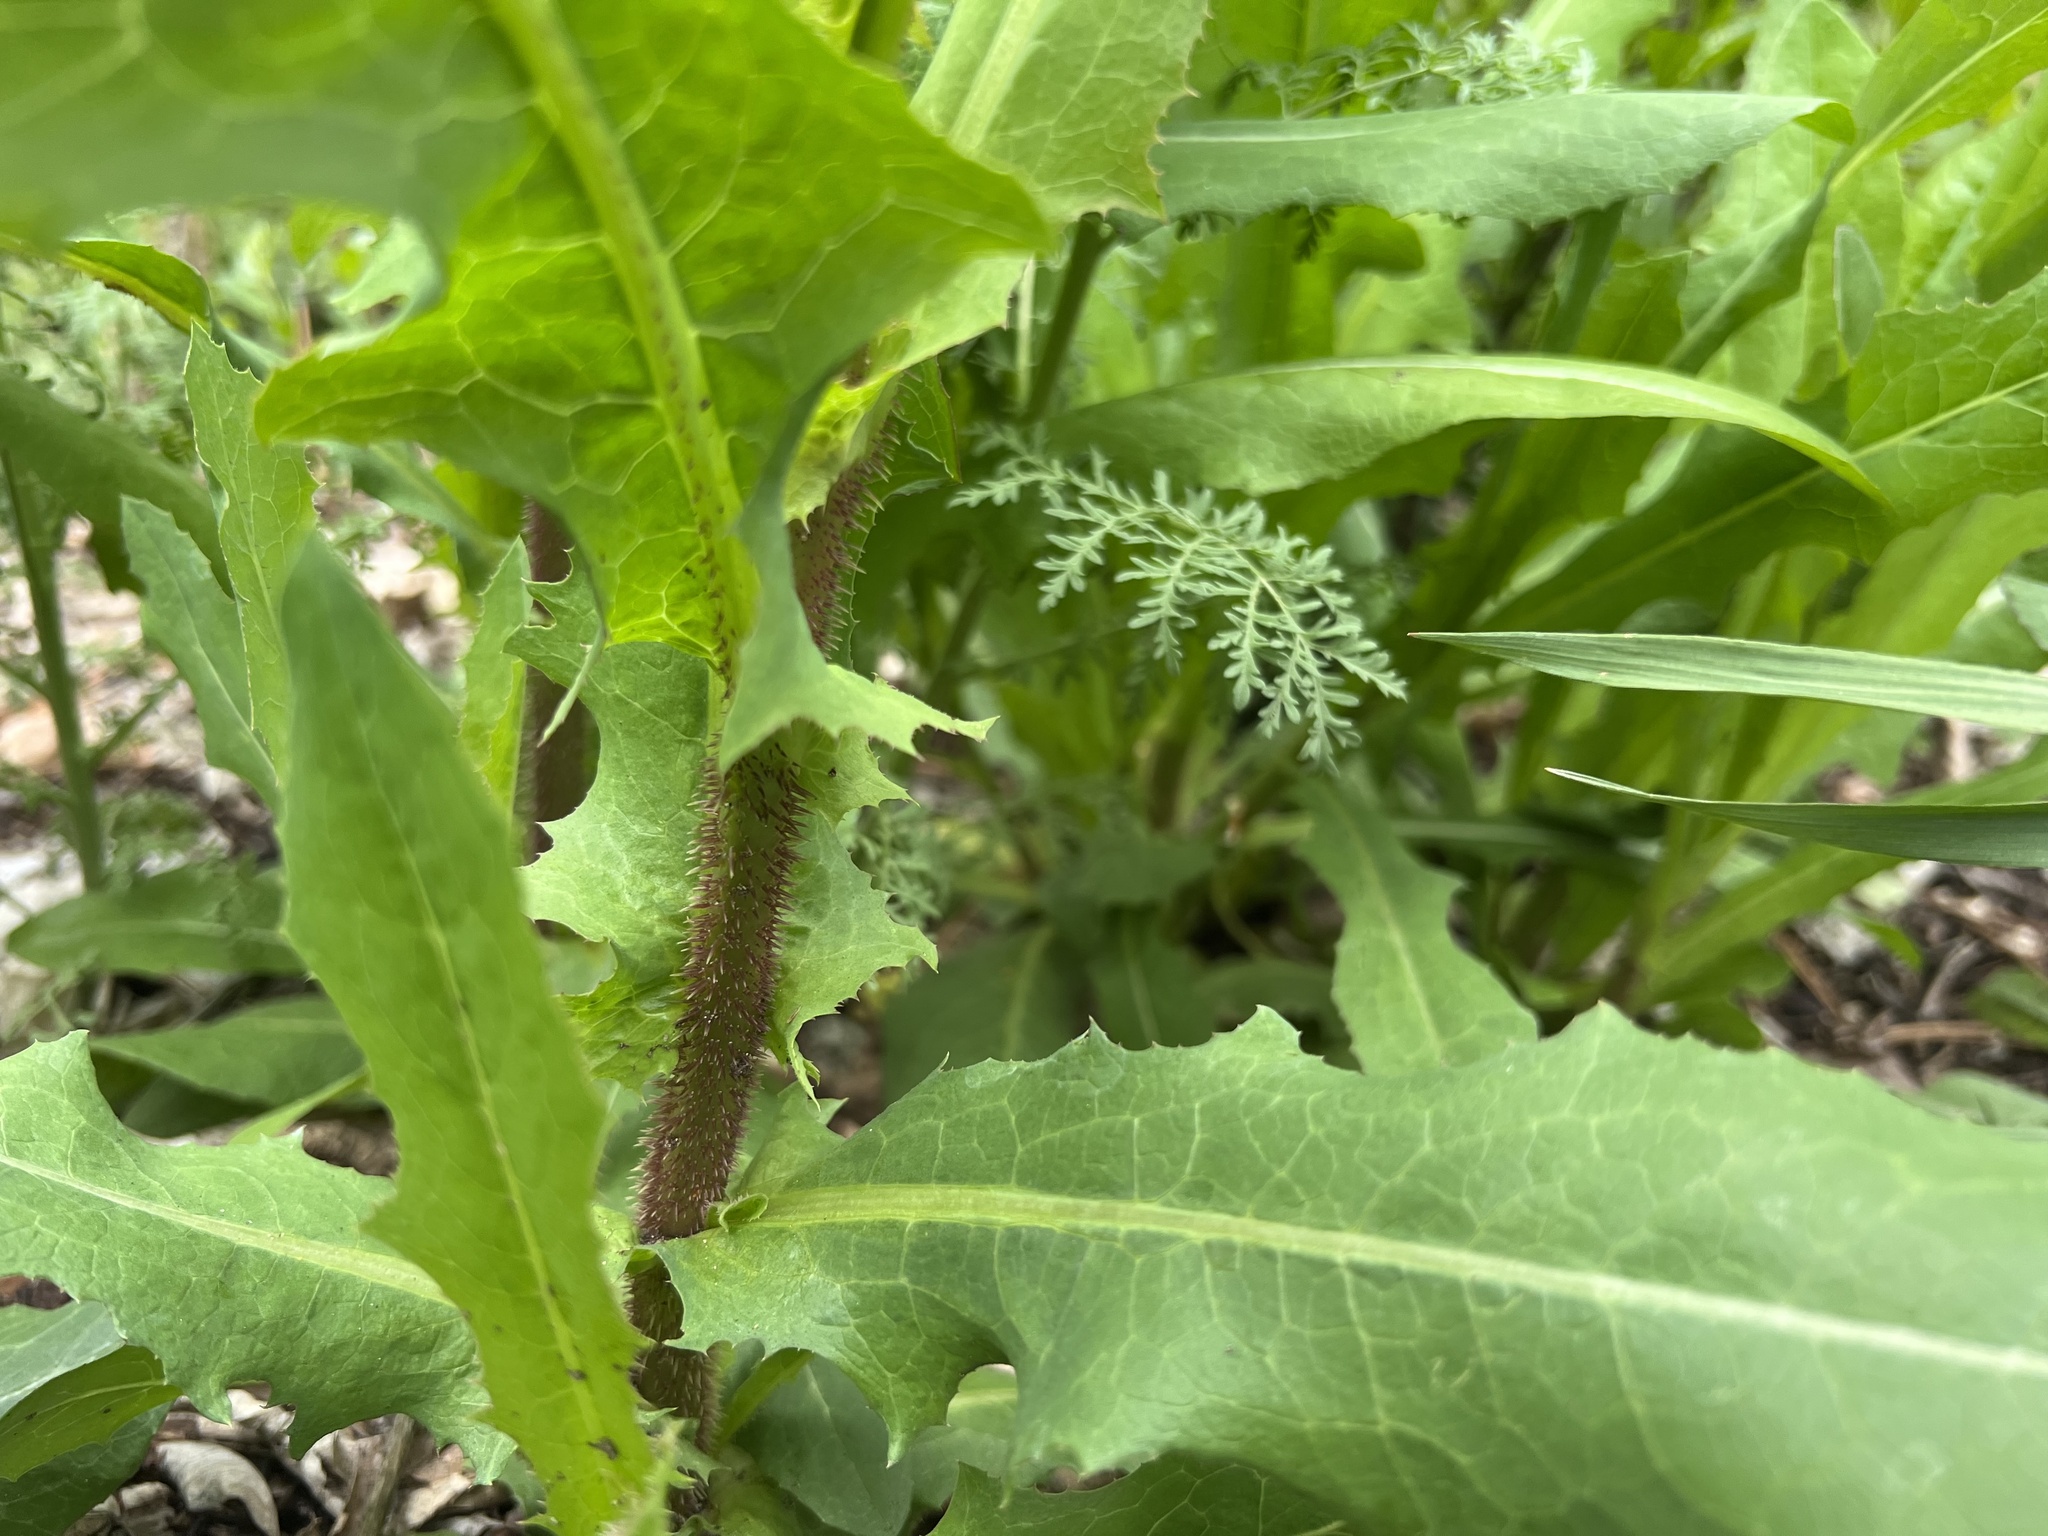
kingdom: Plantae
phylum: Tracheophyta
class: Magnoliopsida
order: Asterales
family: Asteraceae
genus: Lactuca
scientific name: Lactuca serriola
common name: Prickly lettuce
